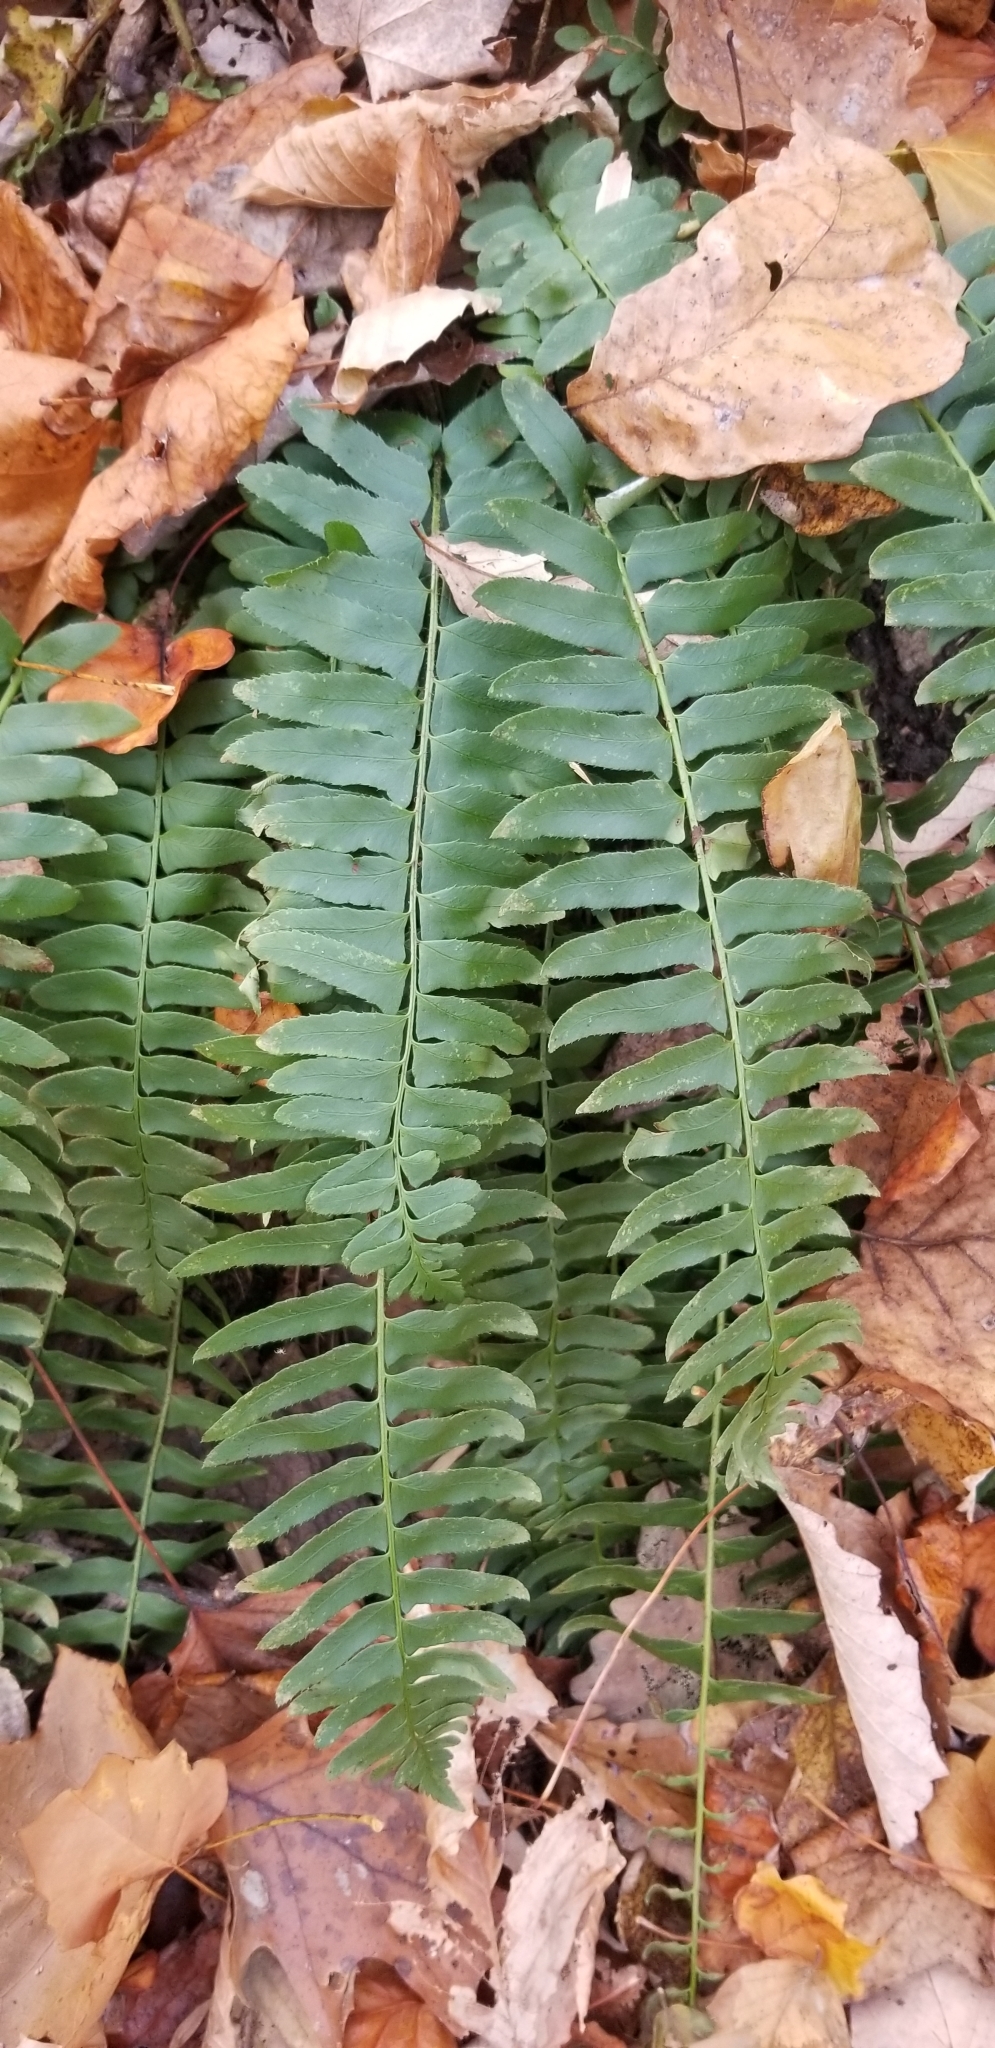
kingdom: Plantae
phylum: Tracheophyta
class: Polypodiopsida
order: Polypodiales
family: Dryopteridaceae
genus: Polystichum
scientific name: Polystichum acrostichoides
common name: Christmas fern
